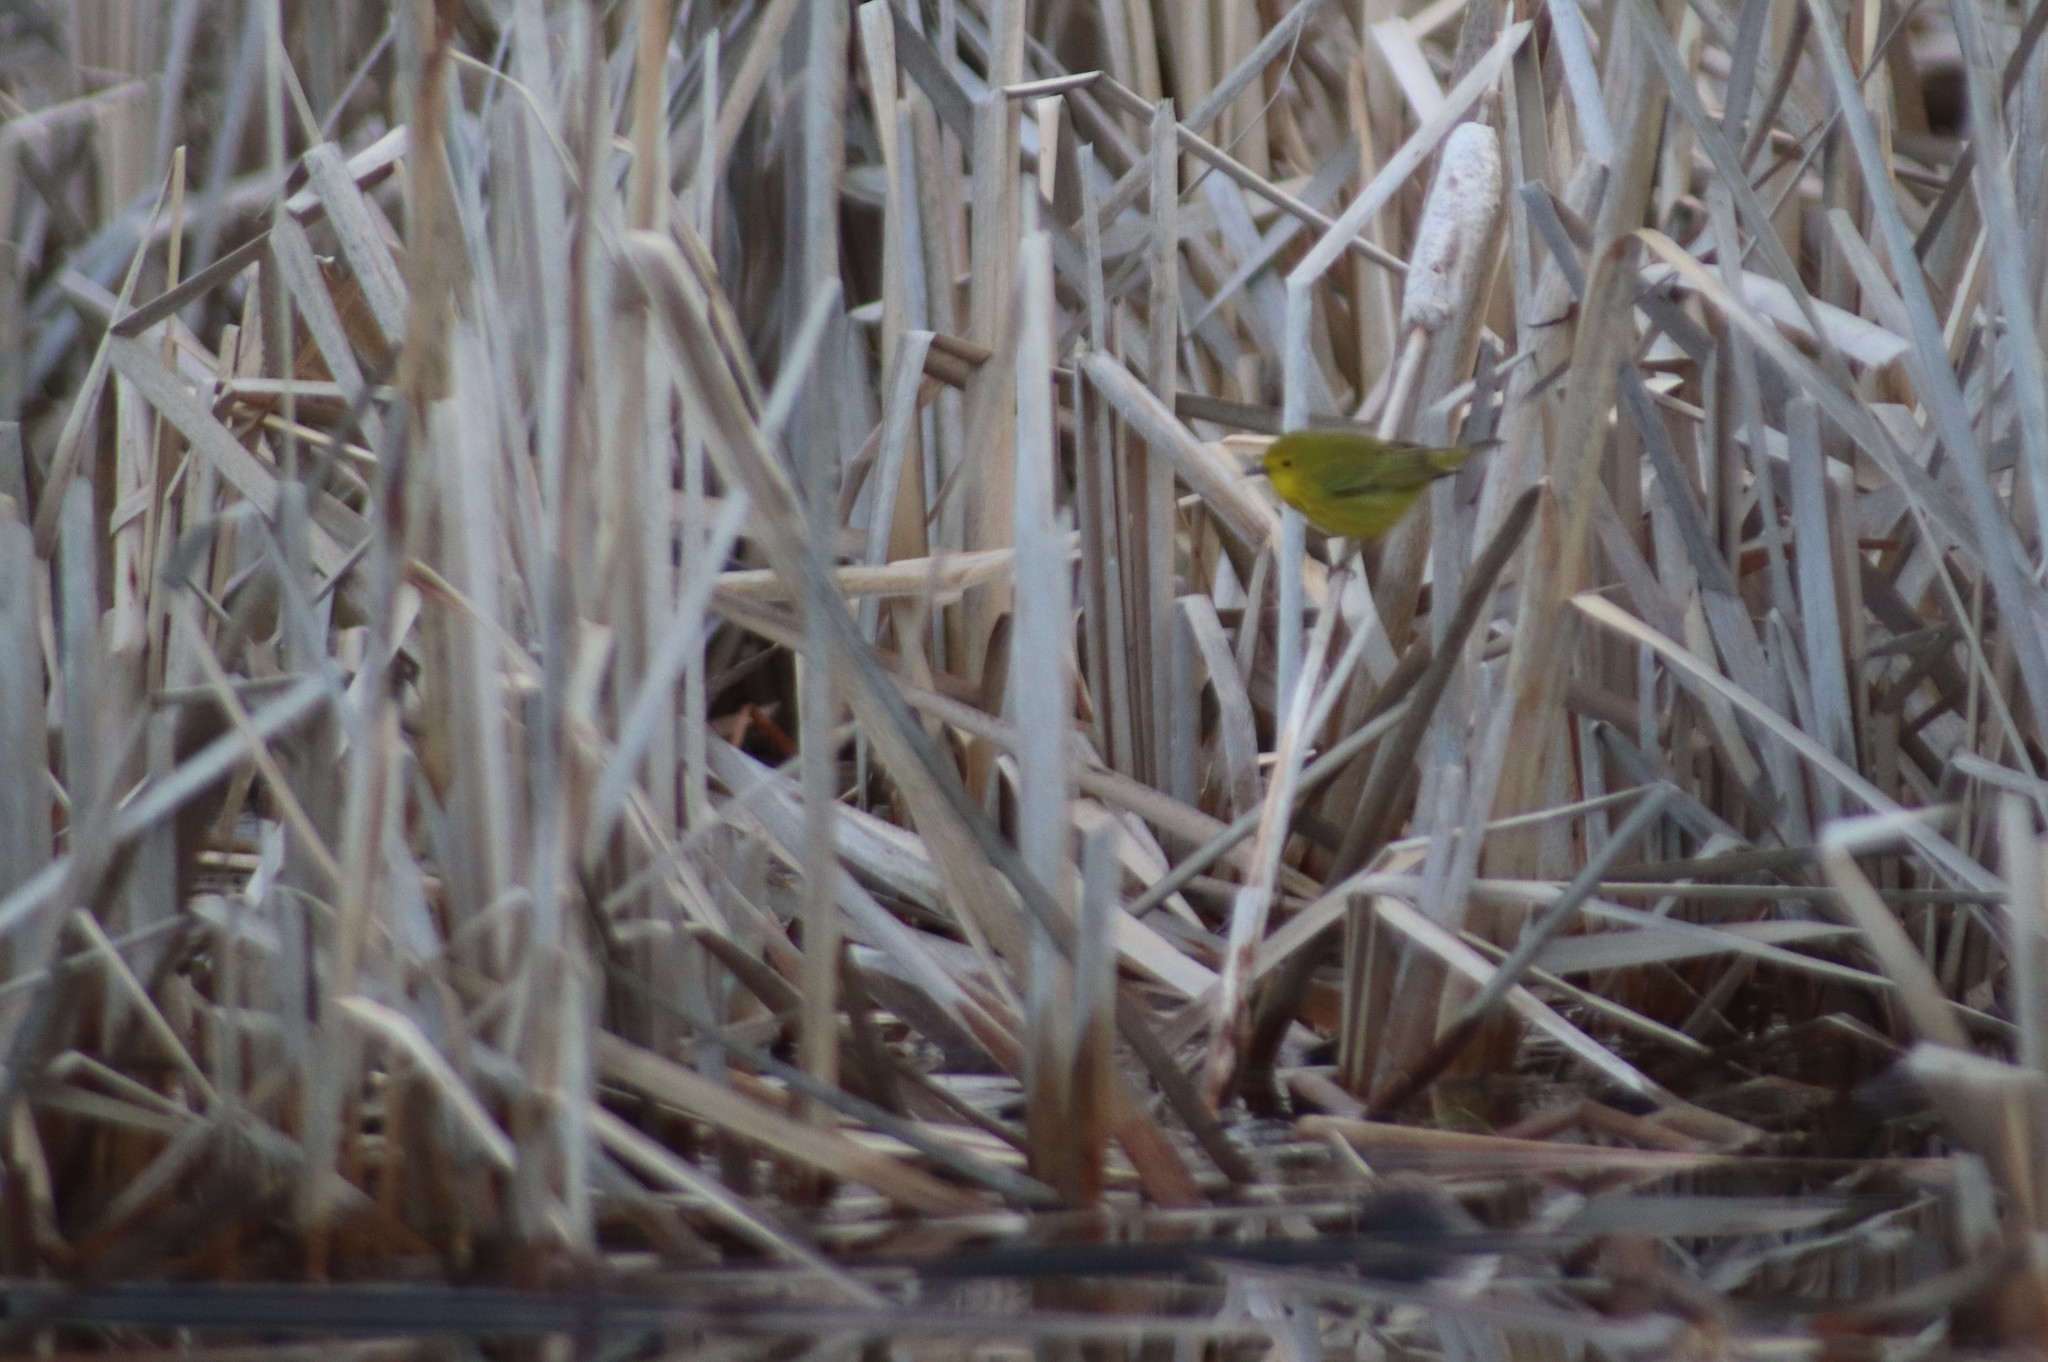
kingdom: Animalia
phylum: Chordata
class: Aves
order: Passeriformes
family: Parulidae
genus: Setophaga
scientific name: Setophaga petechia
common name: Yellow warbler
